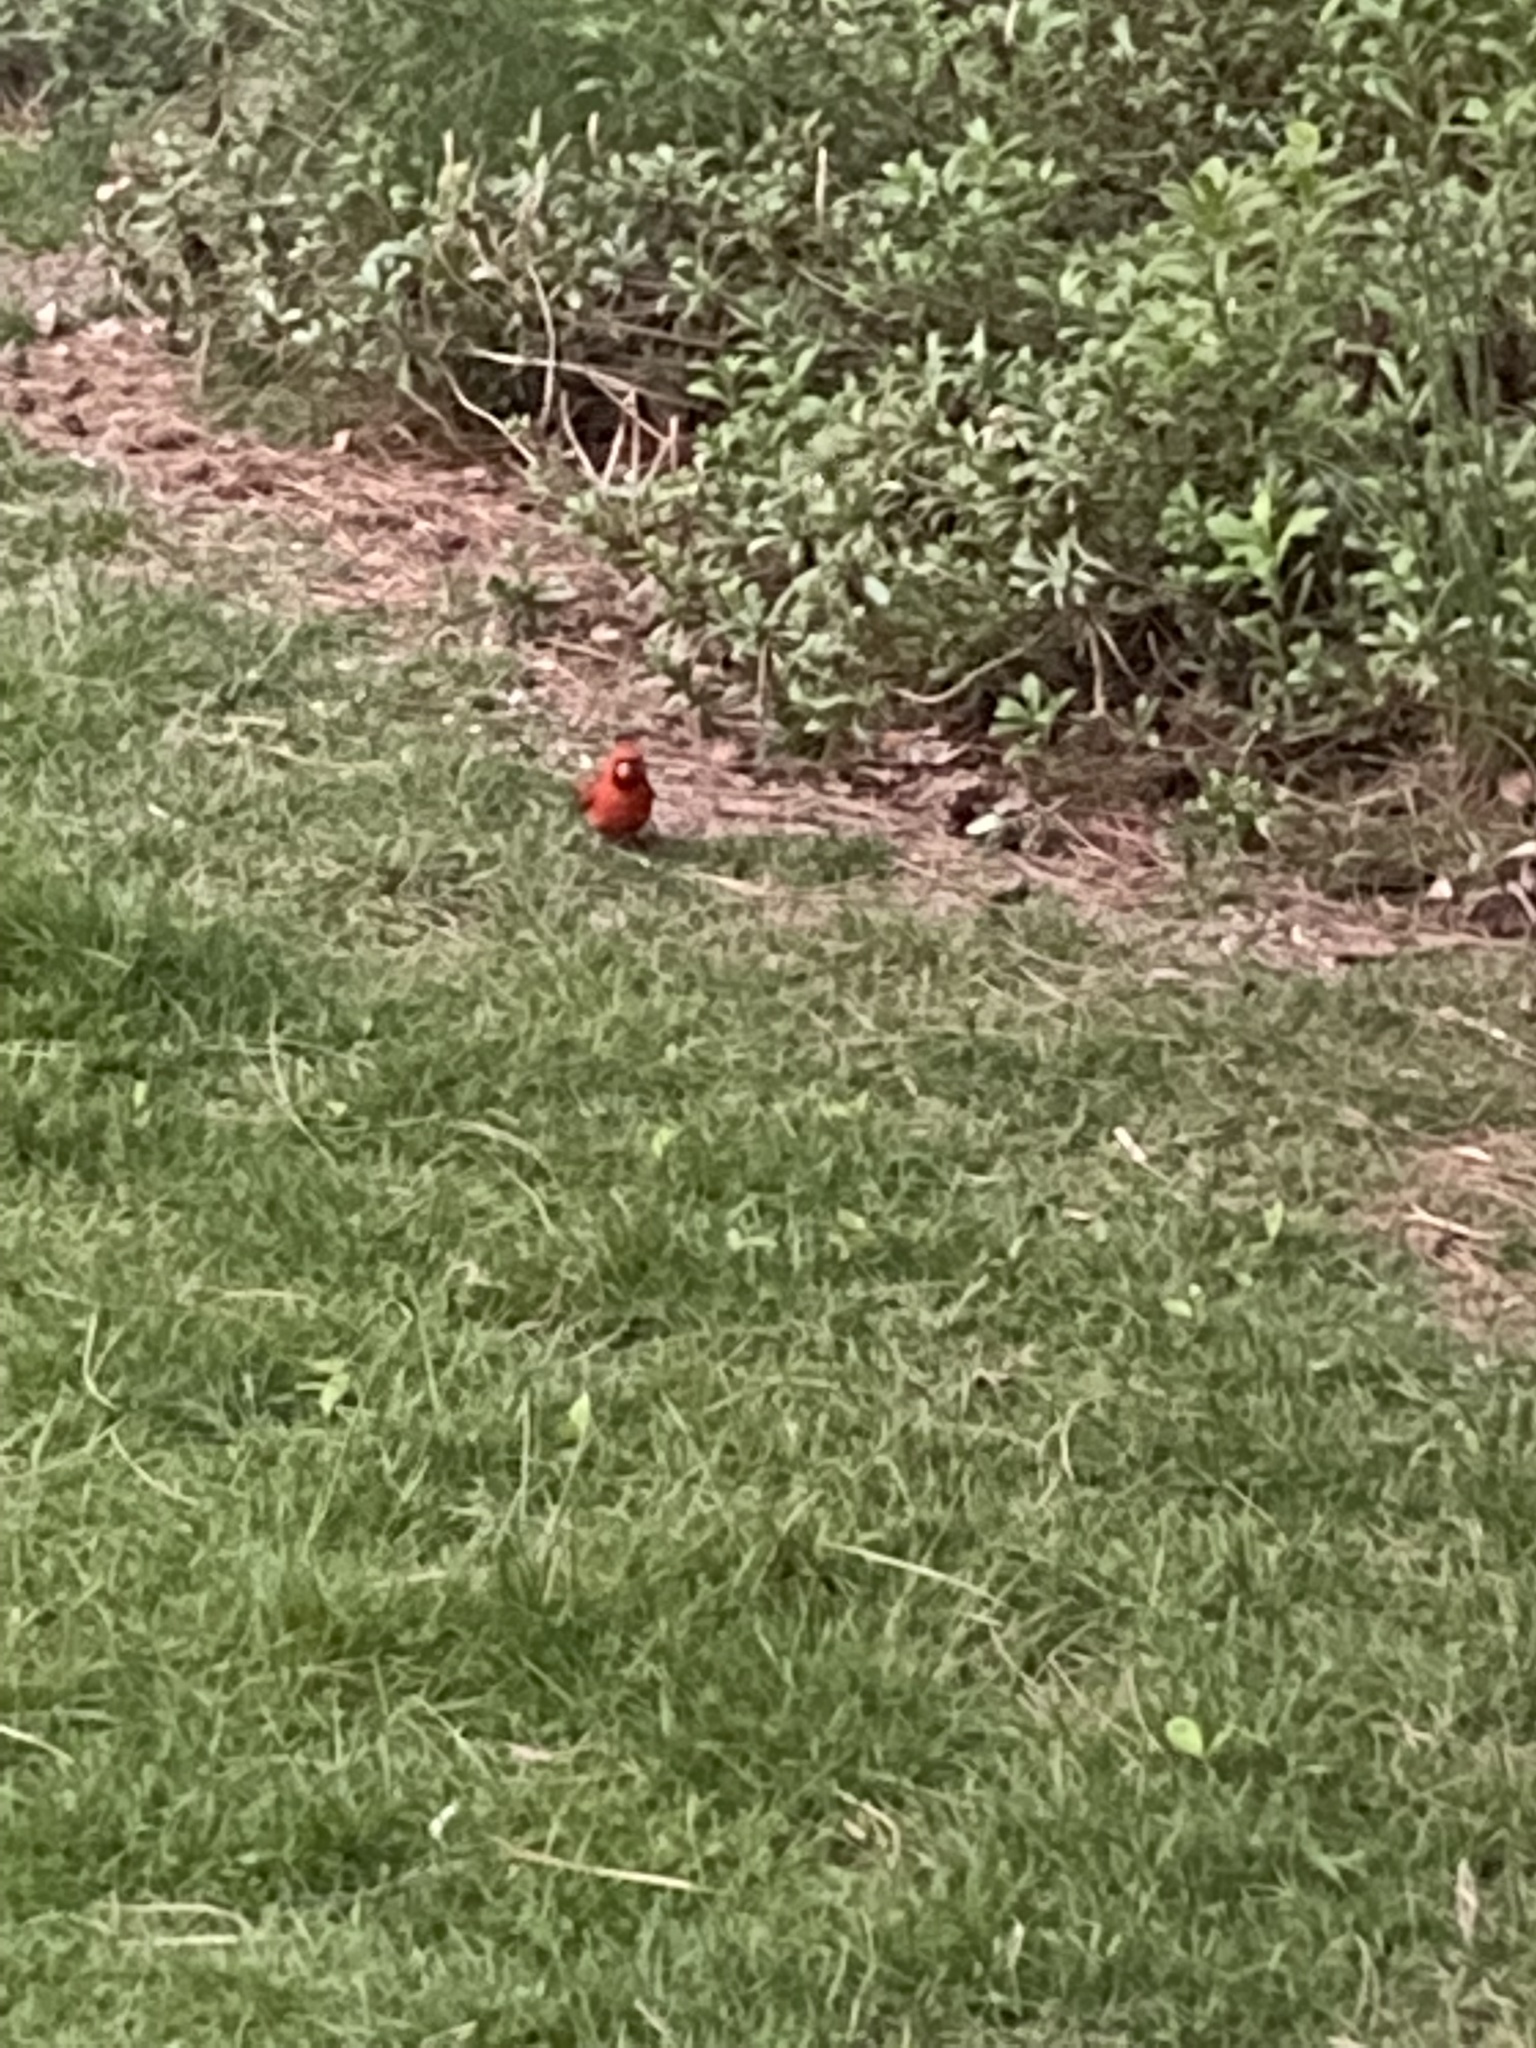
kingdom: Animalia
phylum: Chordata
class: Aves
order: Passeriformes
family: Cardinalidae
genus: Cardinalis
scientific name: Cardinalis cardinalis
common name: Northern cardinal
